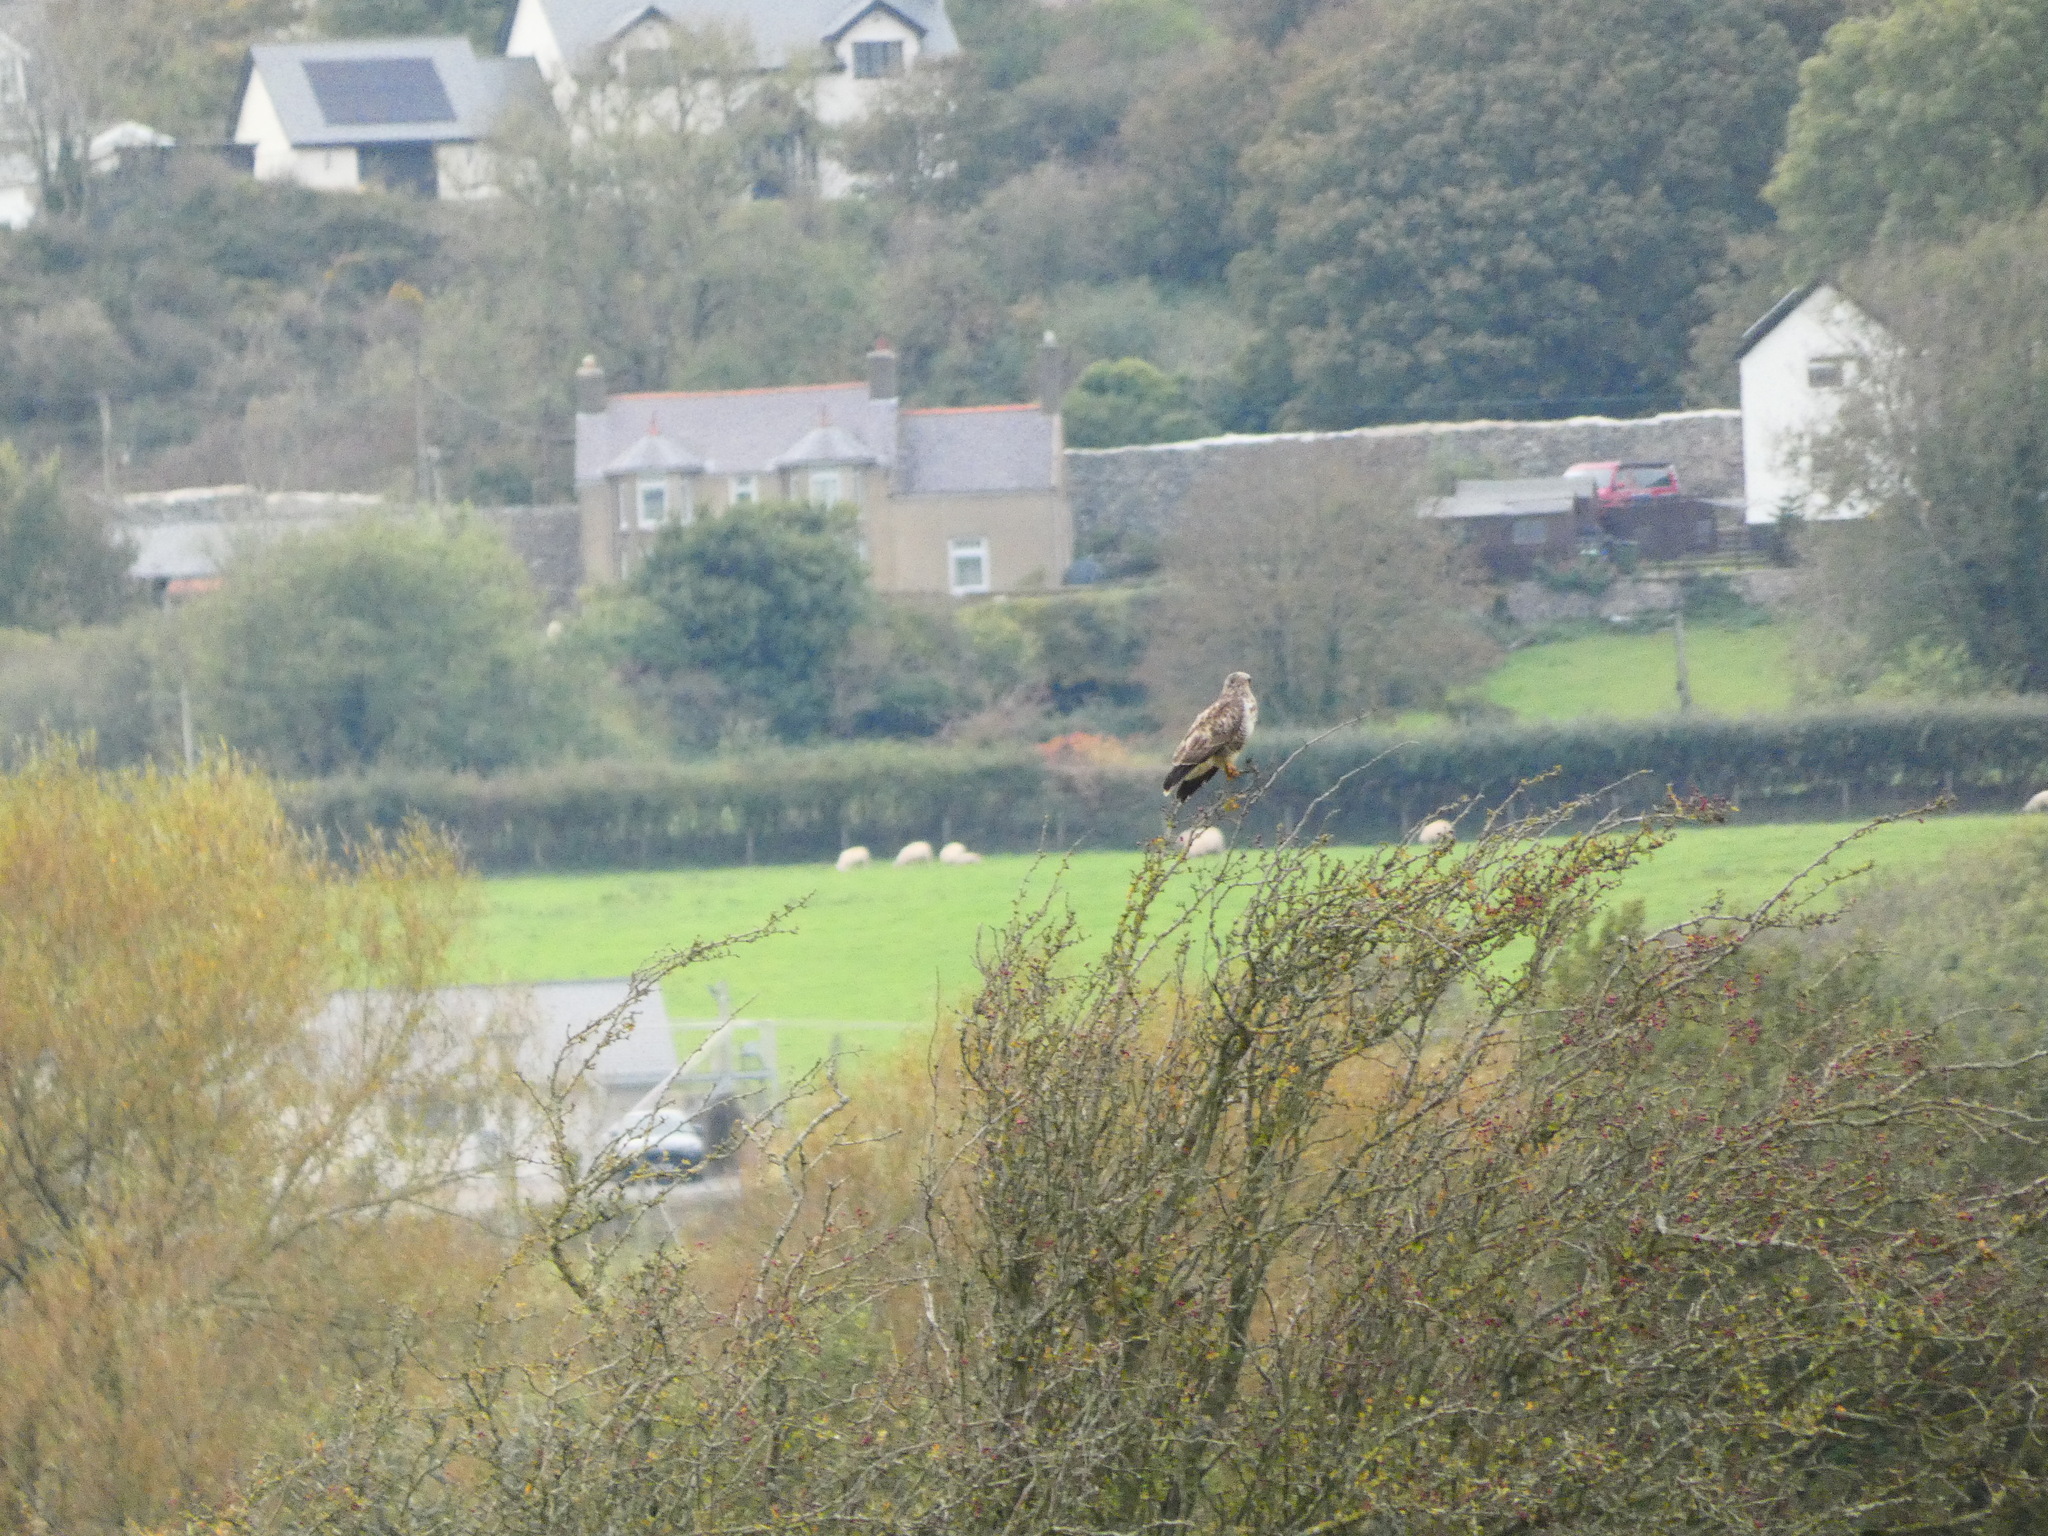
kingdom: Animalia
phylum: Chordata
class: Aves
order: Accipitriformes
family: Accipitridae
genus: Buteo
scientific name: Buteo buteo
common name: Common buzzard
